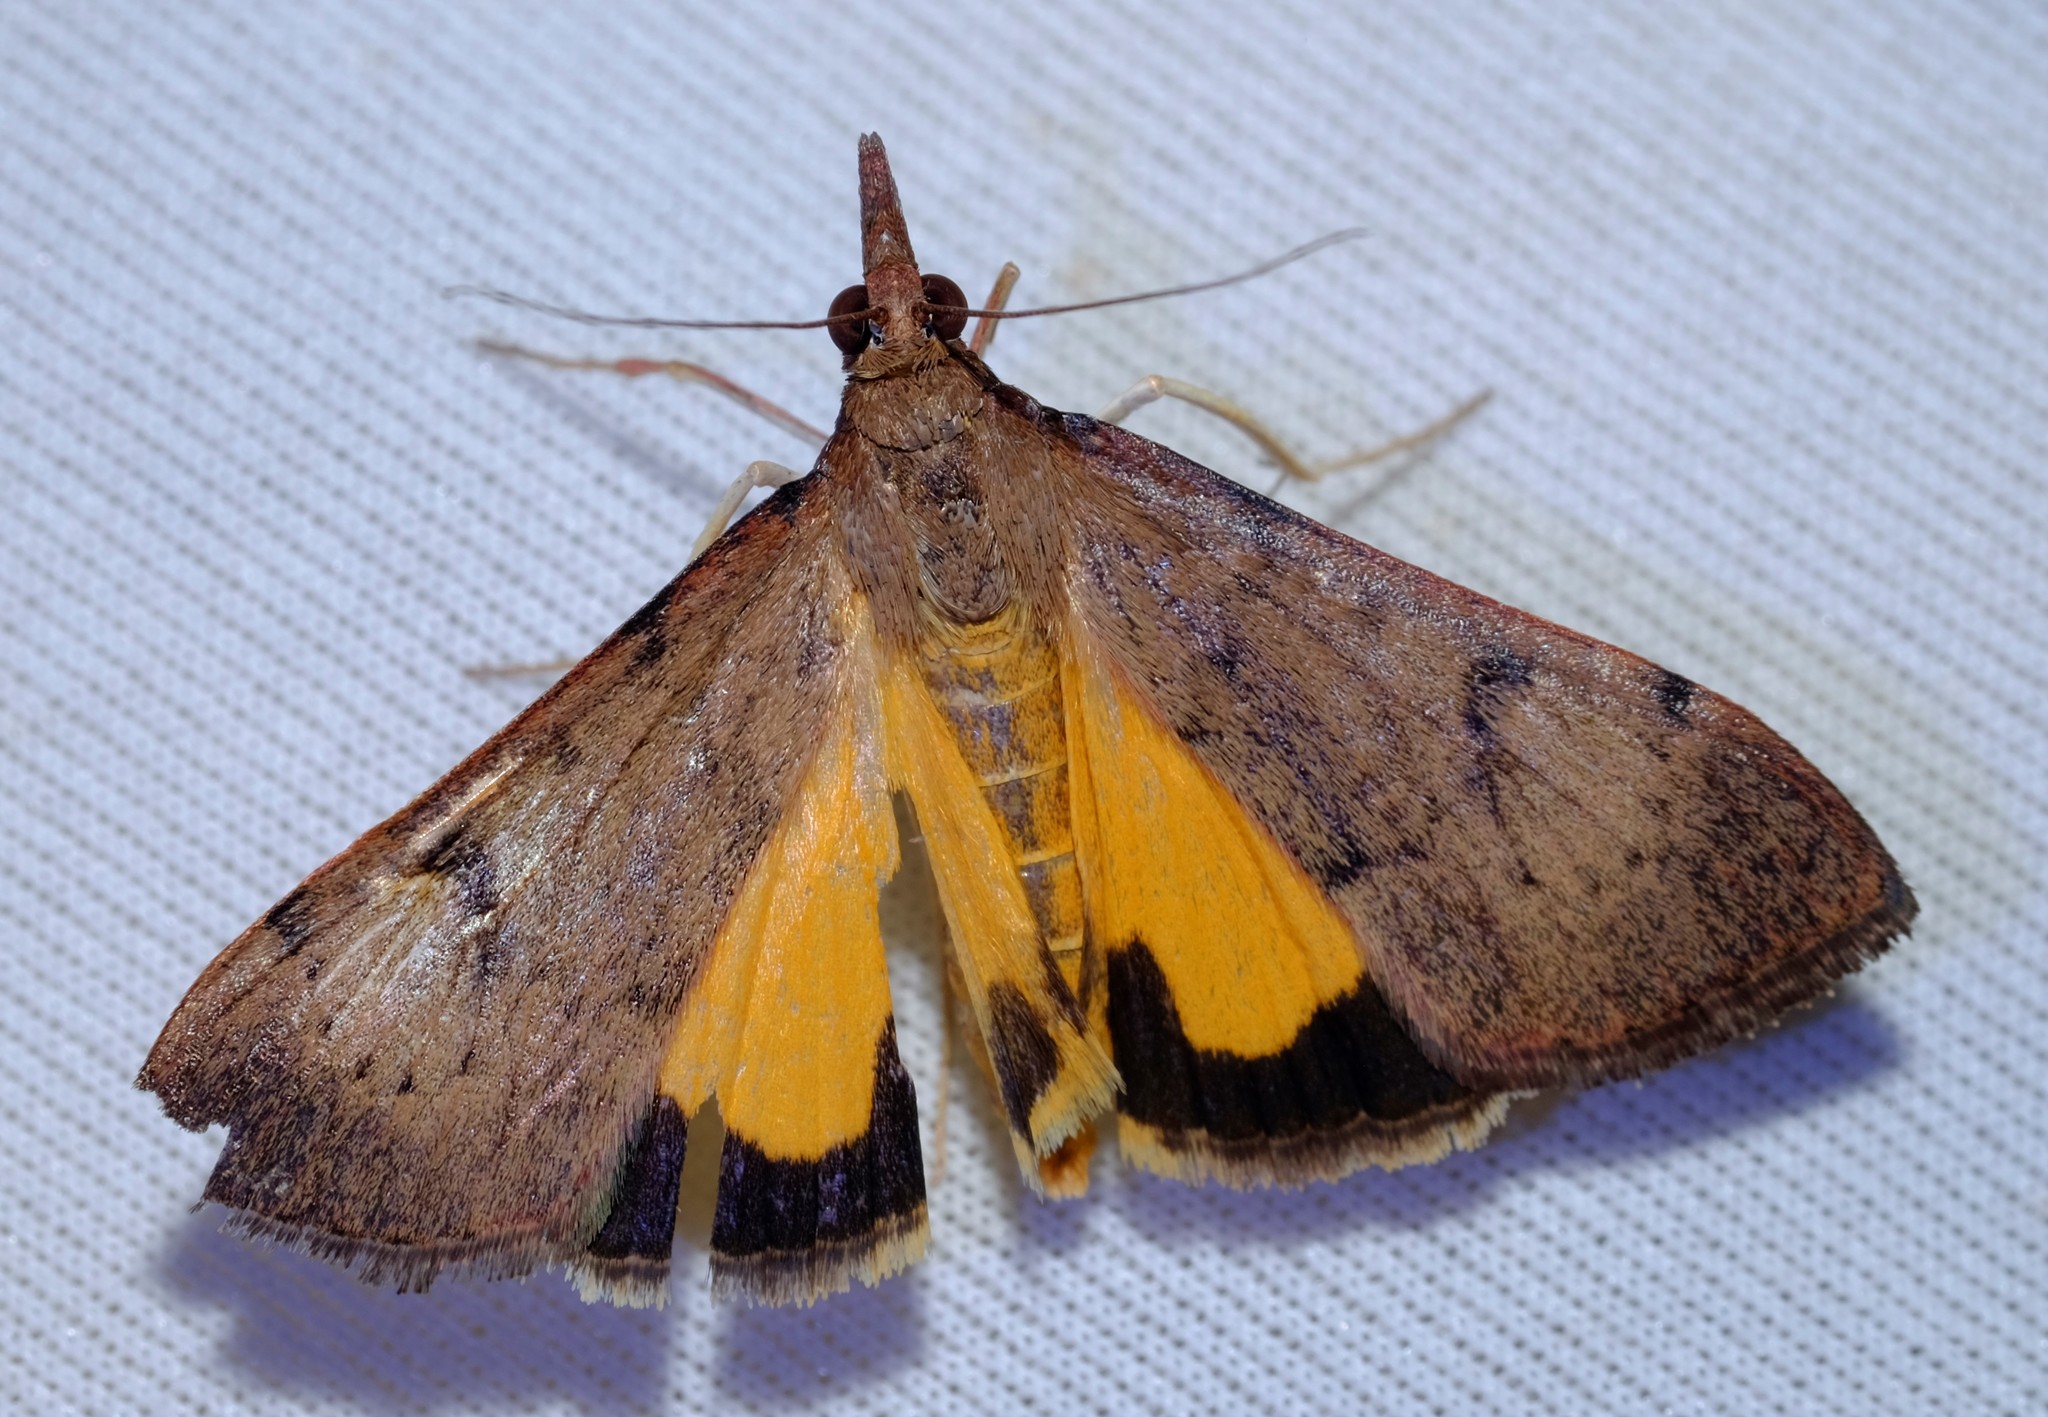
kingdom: Animalia
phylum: Arthropoda
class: Insecta
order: Lepidoptera
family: Crambidae
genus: Uresiphita
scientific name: Uresiphita ornithopteralis
